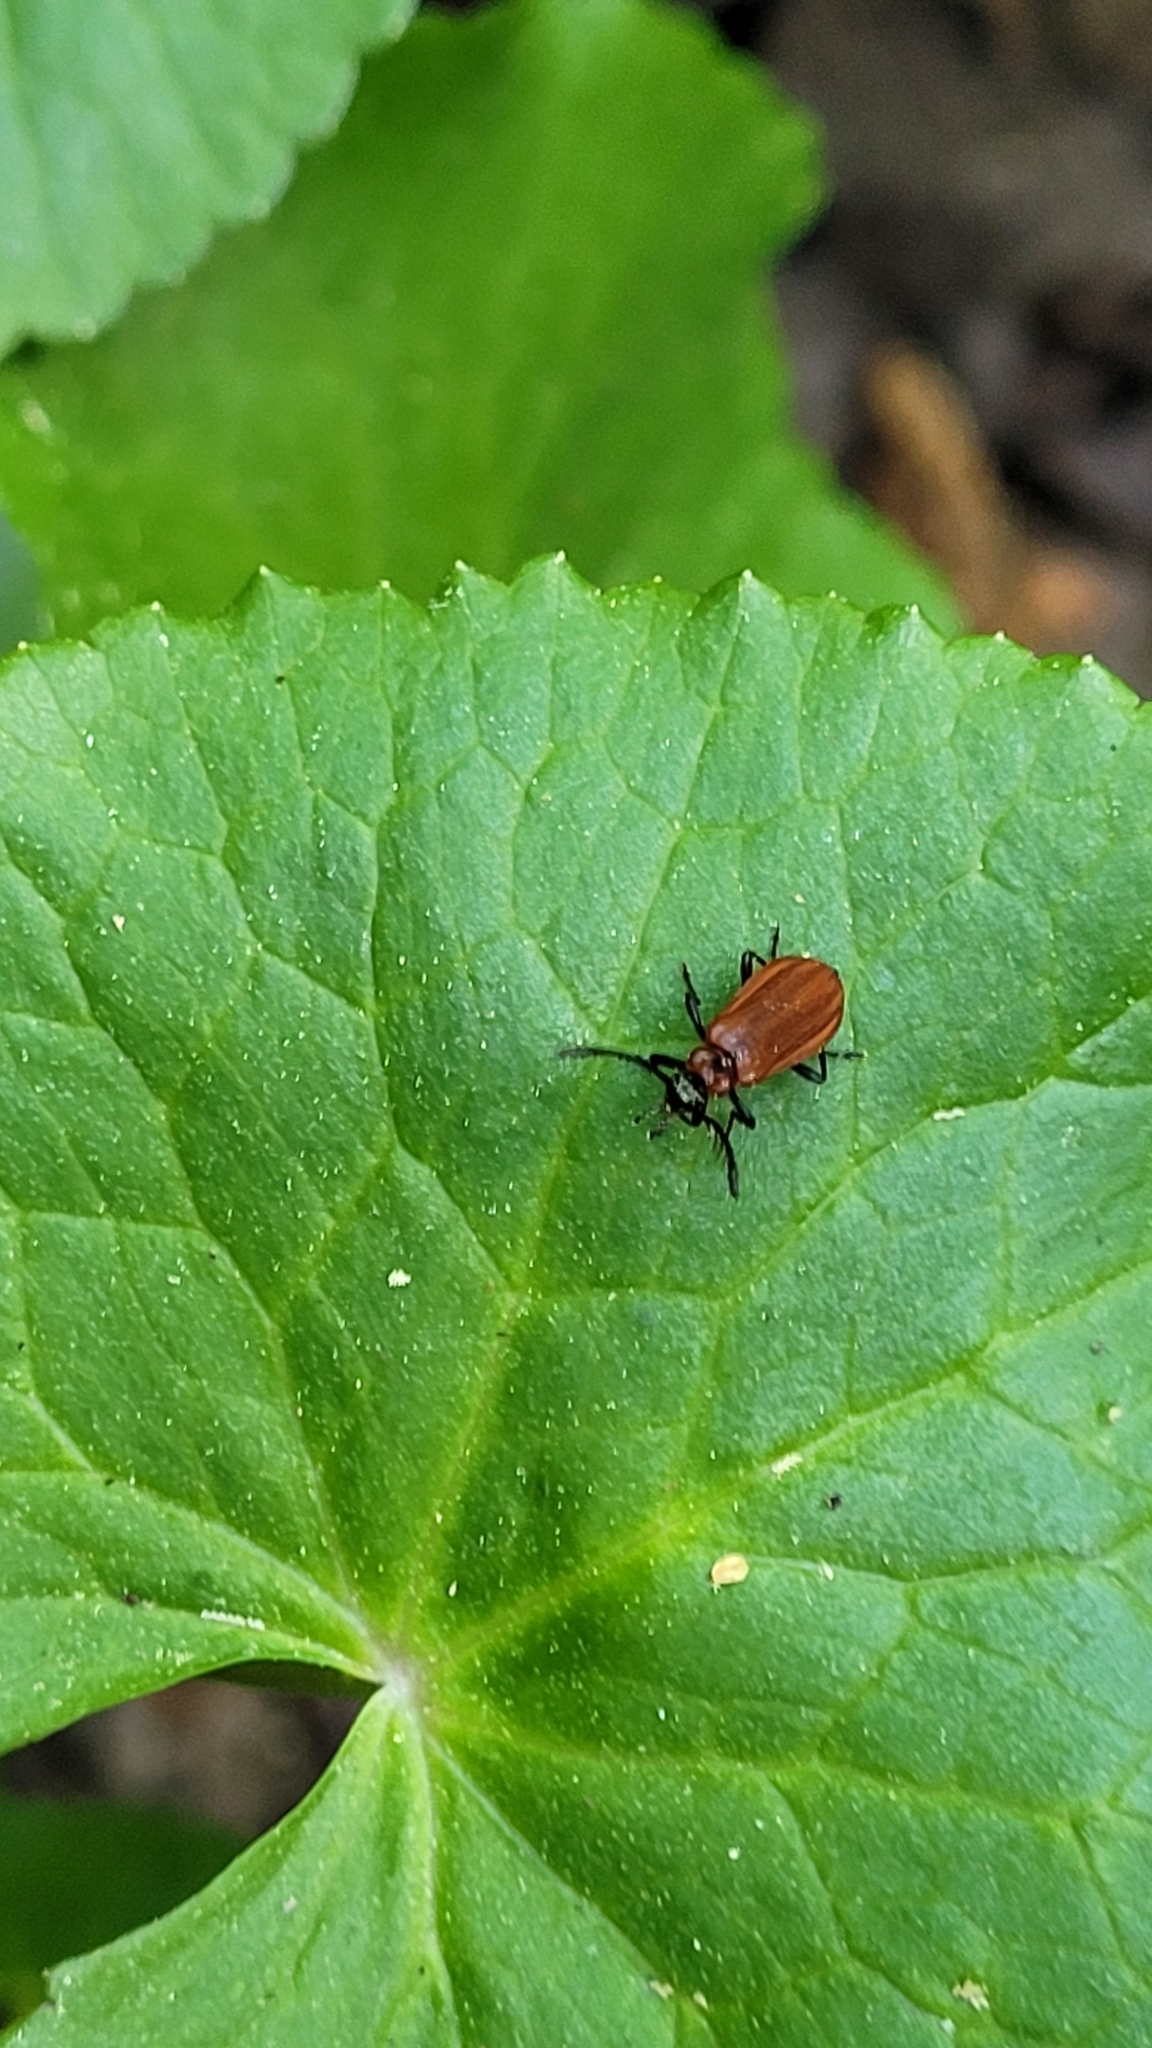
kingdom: Animalia
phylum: Arthropoda
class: Insecta
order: Coleoptera
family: Pyrochroidae
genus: Schizotus
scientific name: Schizotus pectinicornis
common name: Scarce cardinal beetle
